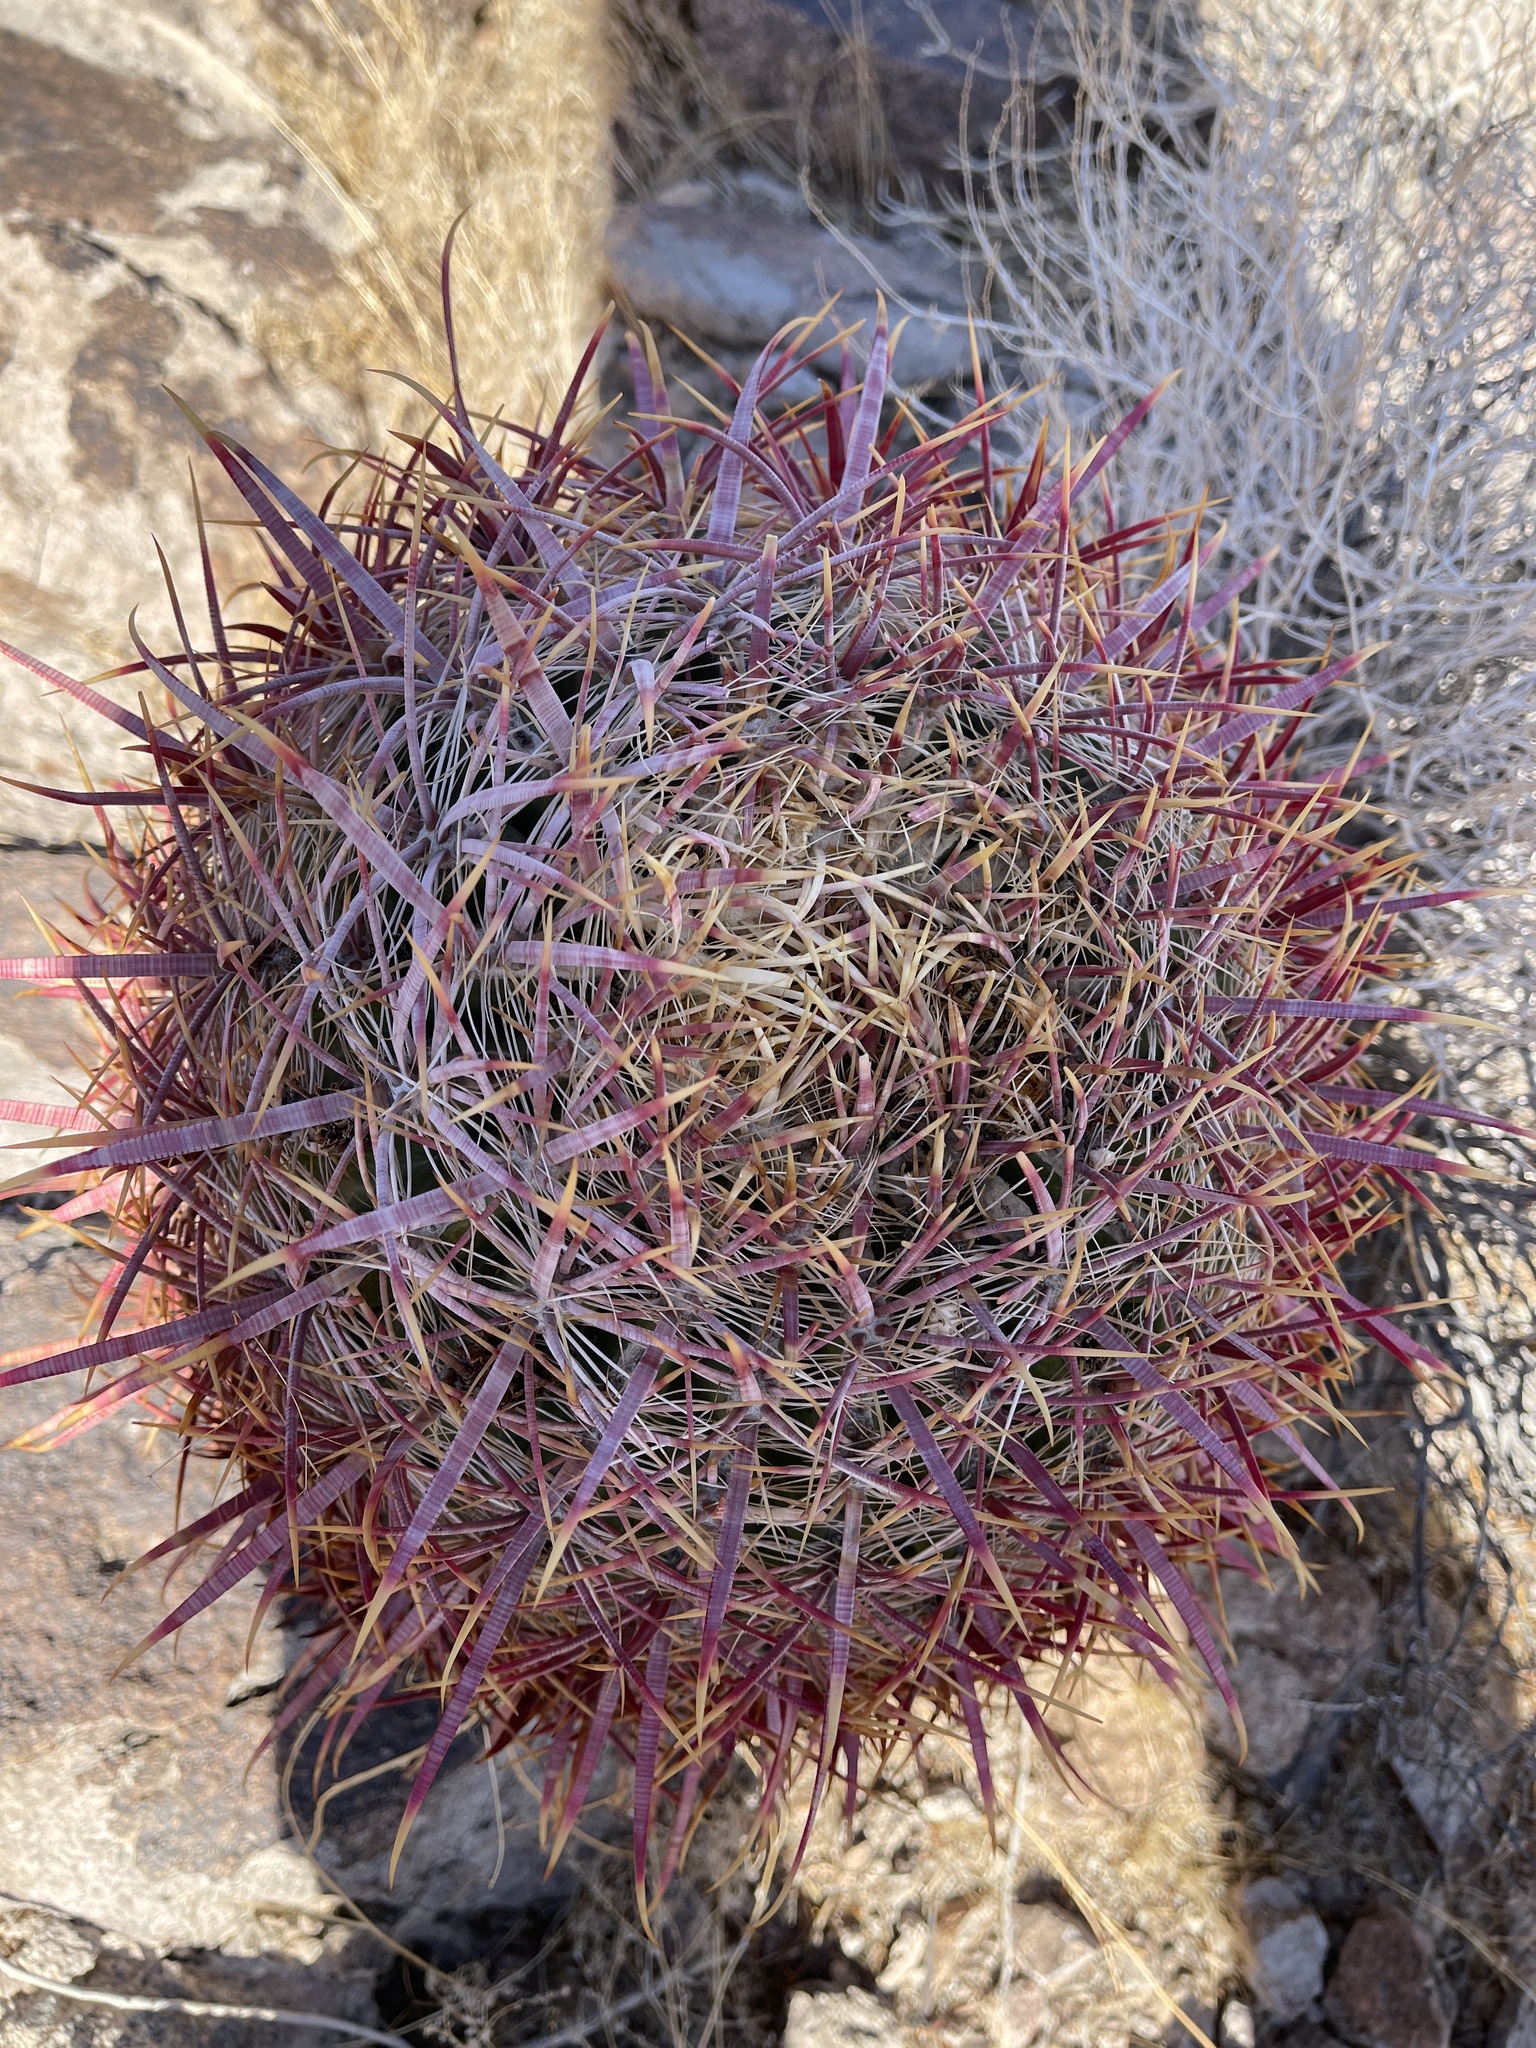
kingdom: Plantae
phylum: Tracheophyta
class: Magnoliopsida
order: Caryophyllales
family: Cactaceae
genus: Ferocactus
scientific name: Ferocactus cylindraceus
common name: California barrel cactus
